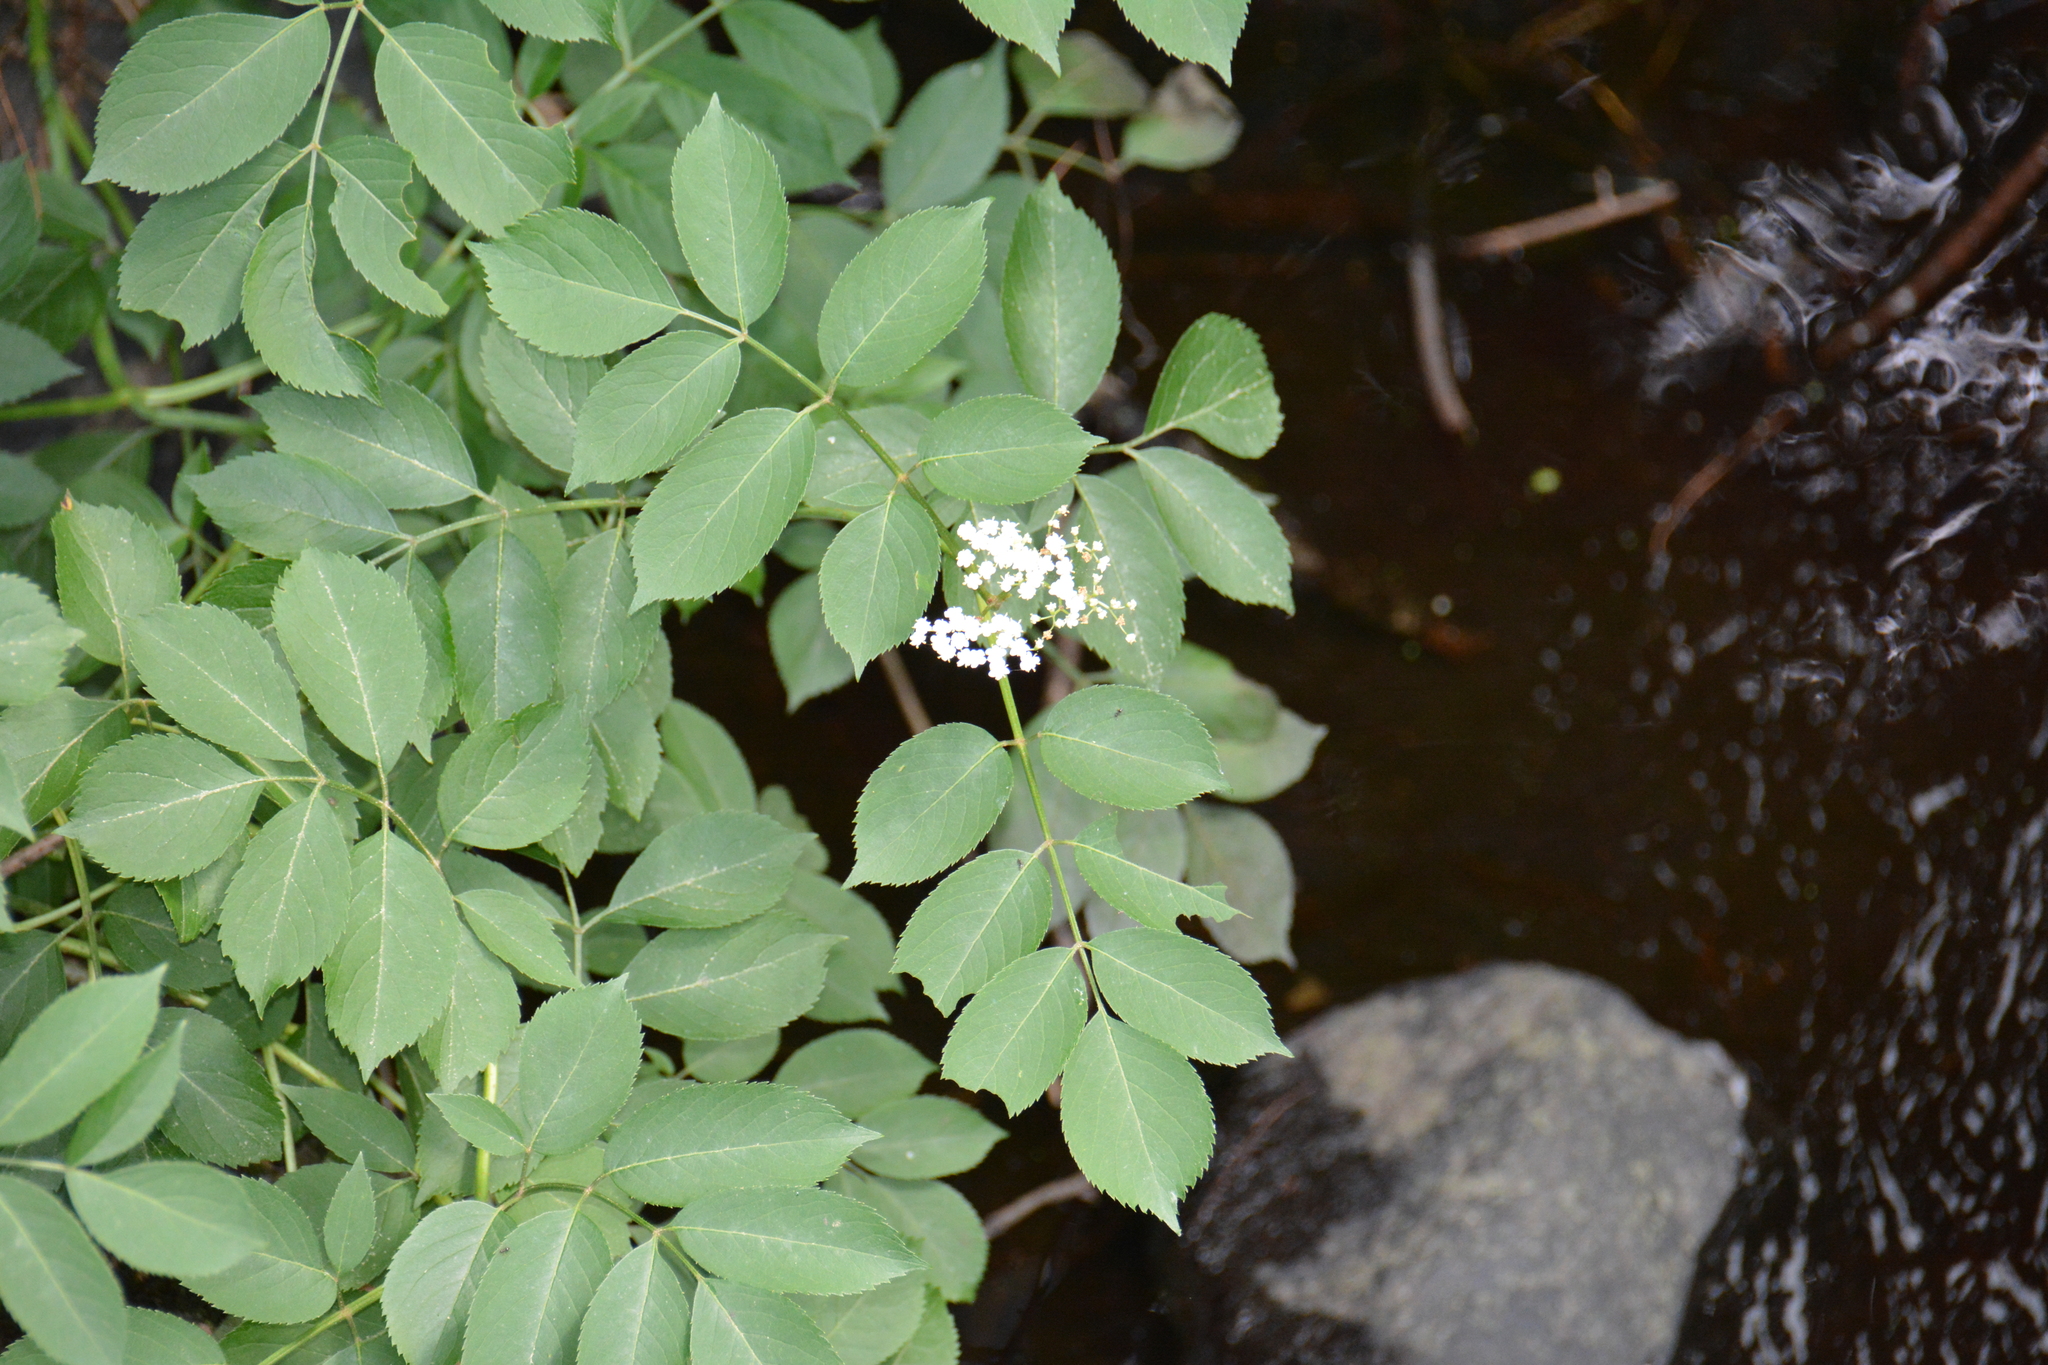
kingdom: Plantae
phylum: Tracheophyta
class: Magnoliopsida
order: Dipsacales
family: Viburnaceae
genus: Sambucus
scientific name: Sambucus canadensis
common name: American elder
